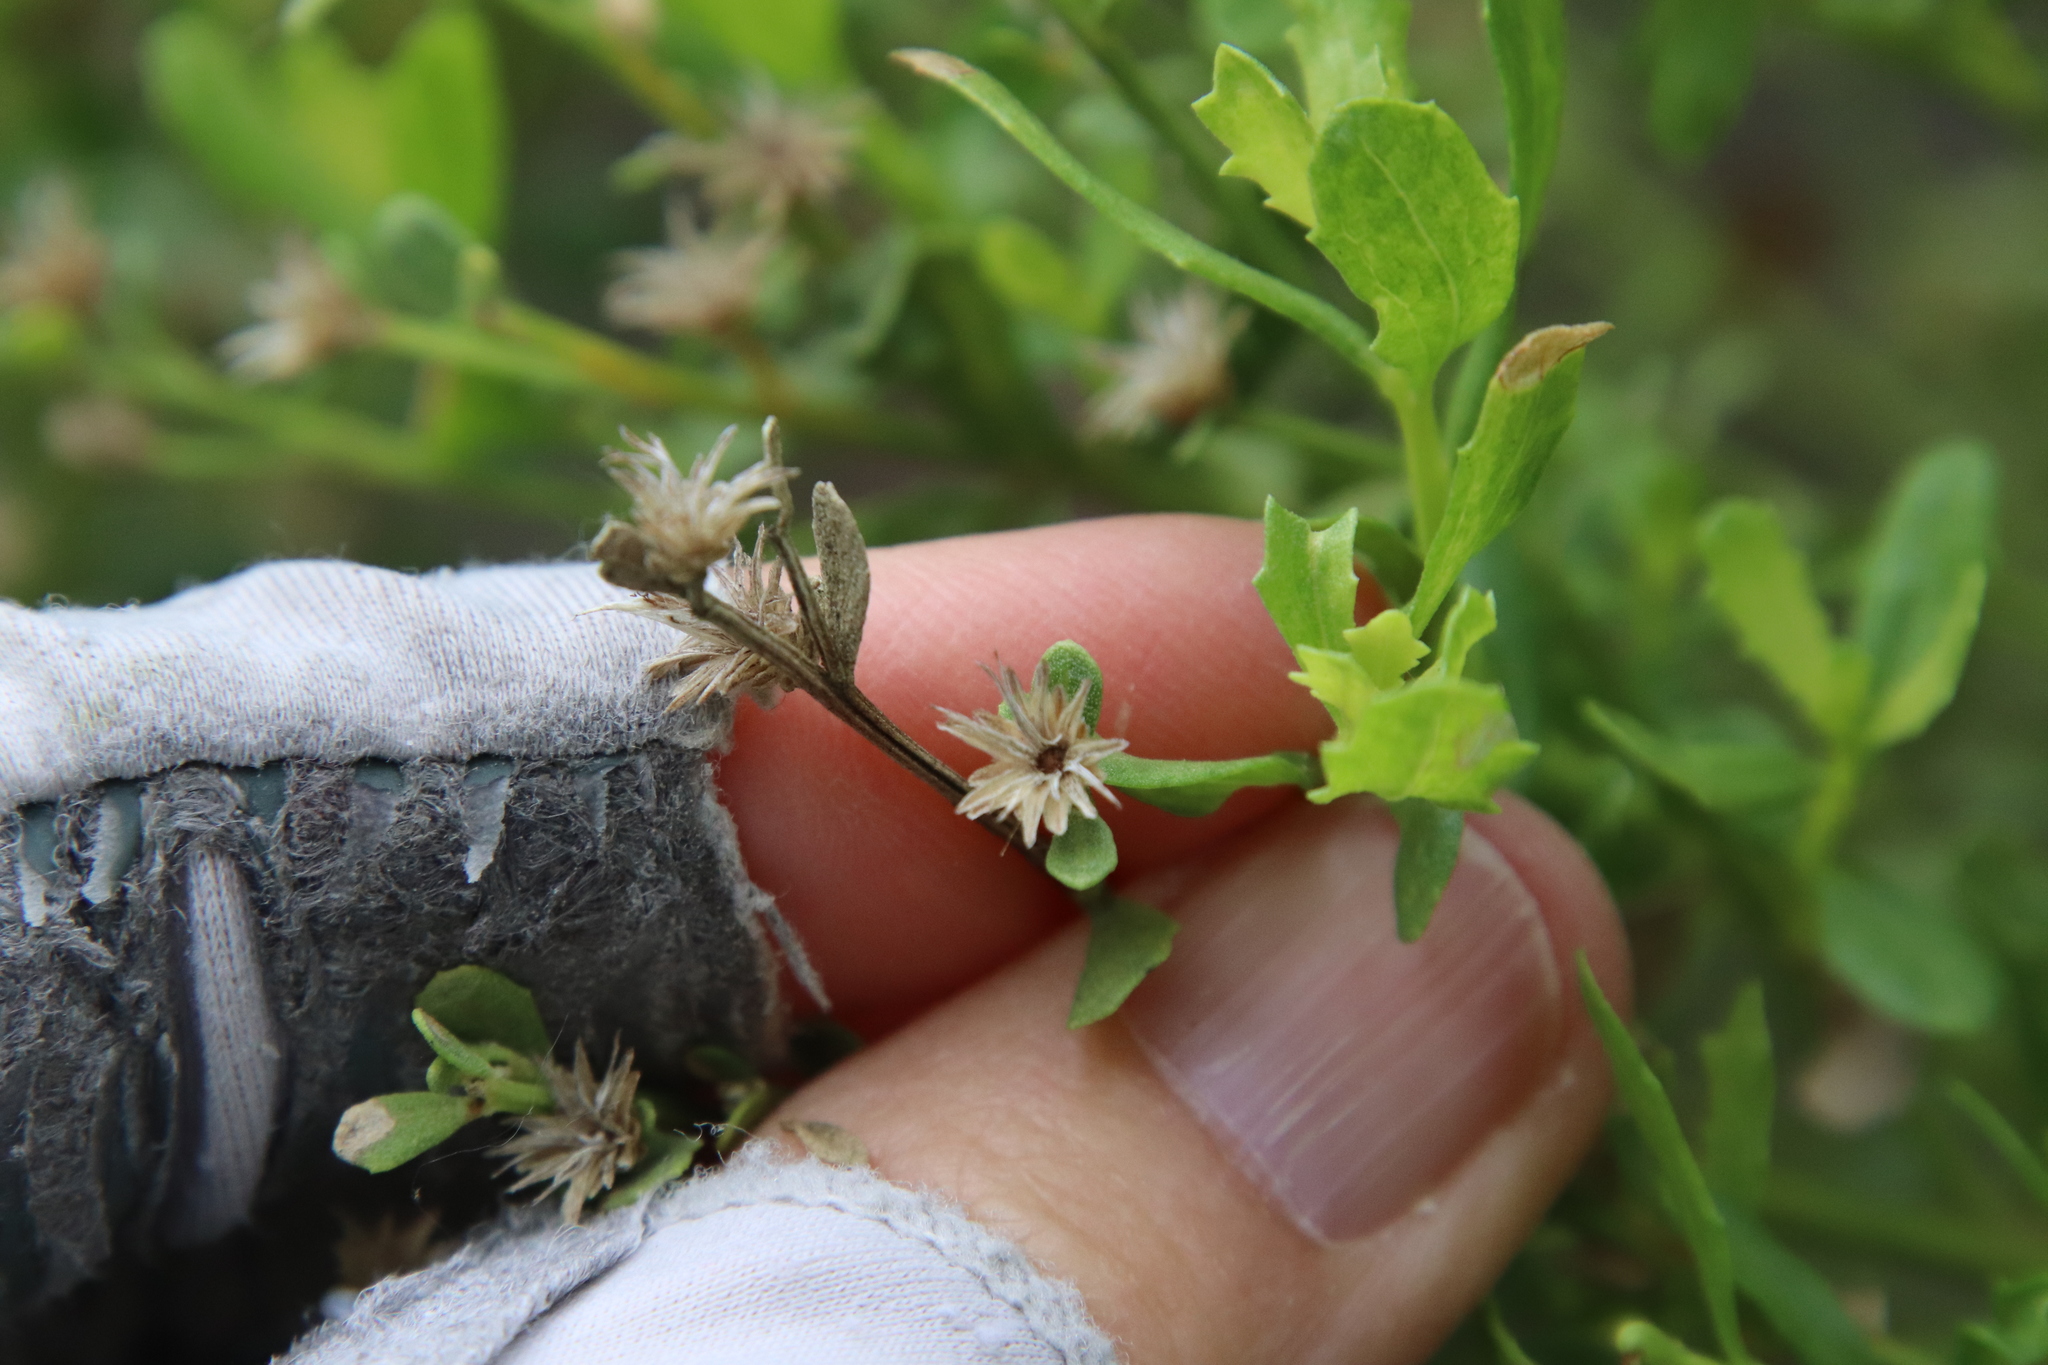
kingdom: Plantae
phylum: Tracheophyta
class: Magnoliopsida
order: Asterales
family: Asteraceae
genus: Baccharis
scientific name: Baccharis pilularis
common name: Coyotebrush
